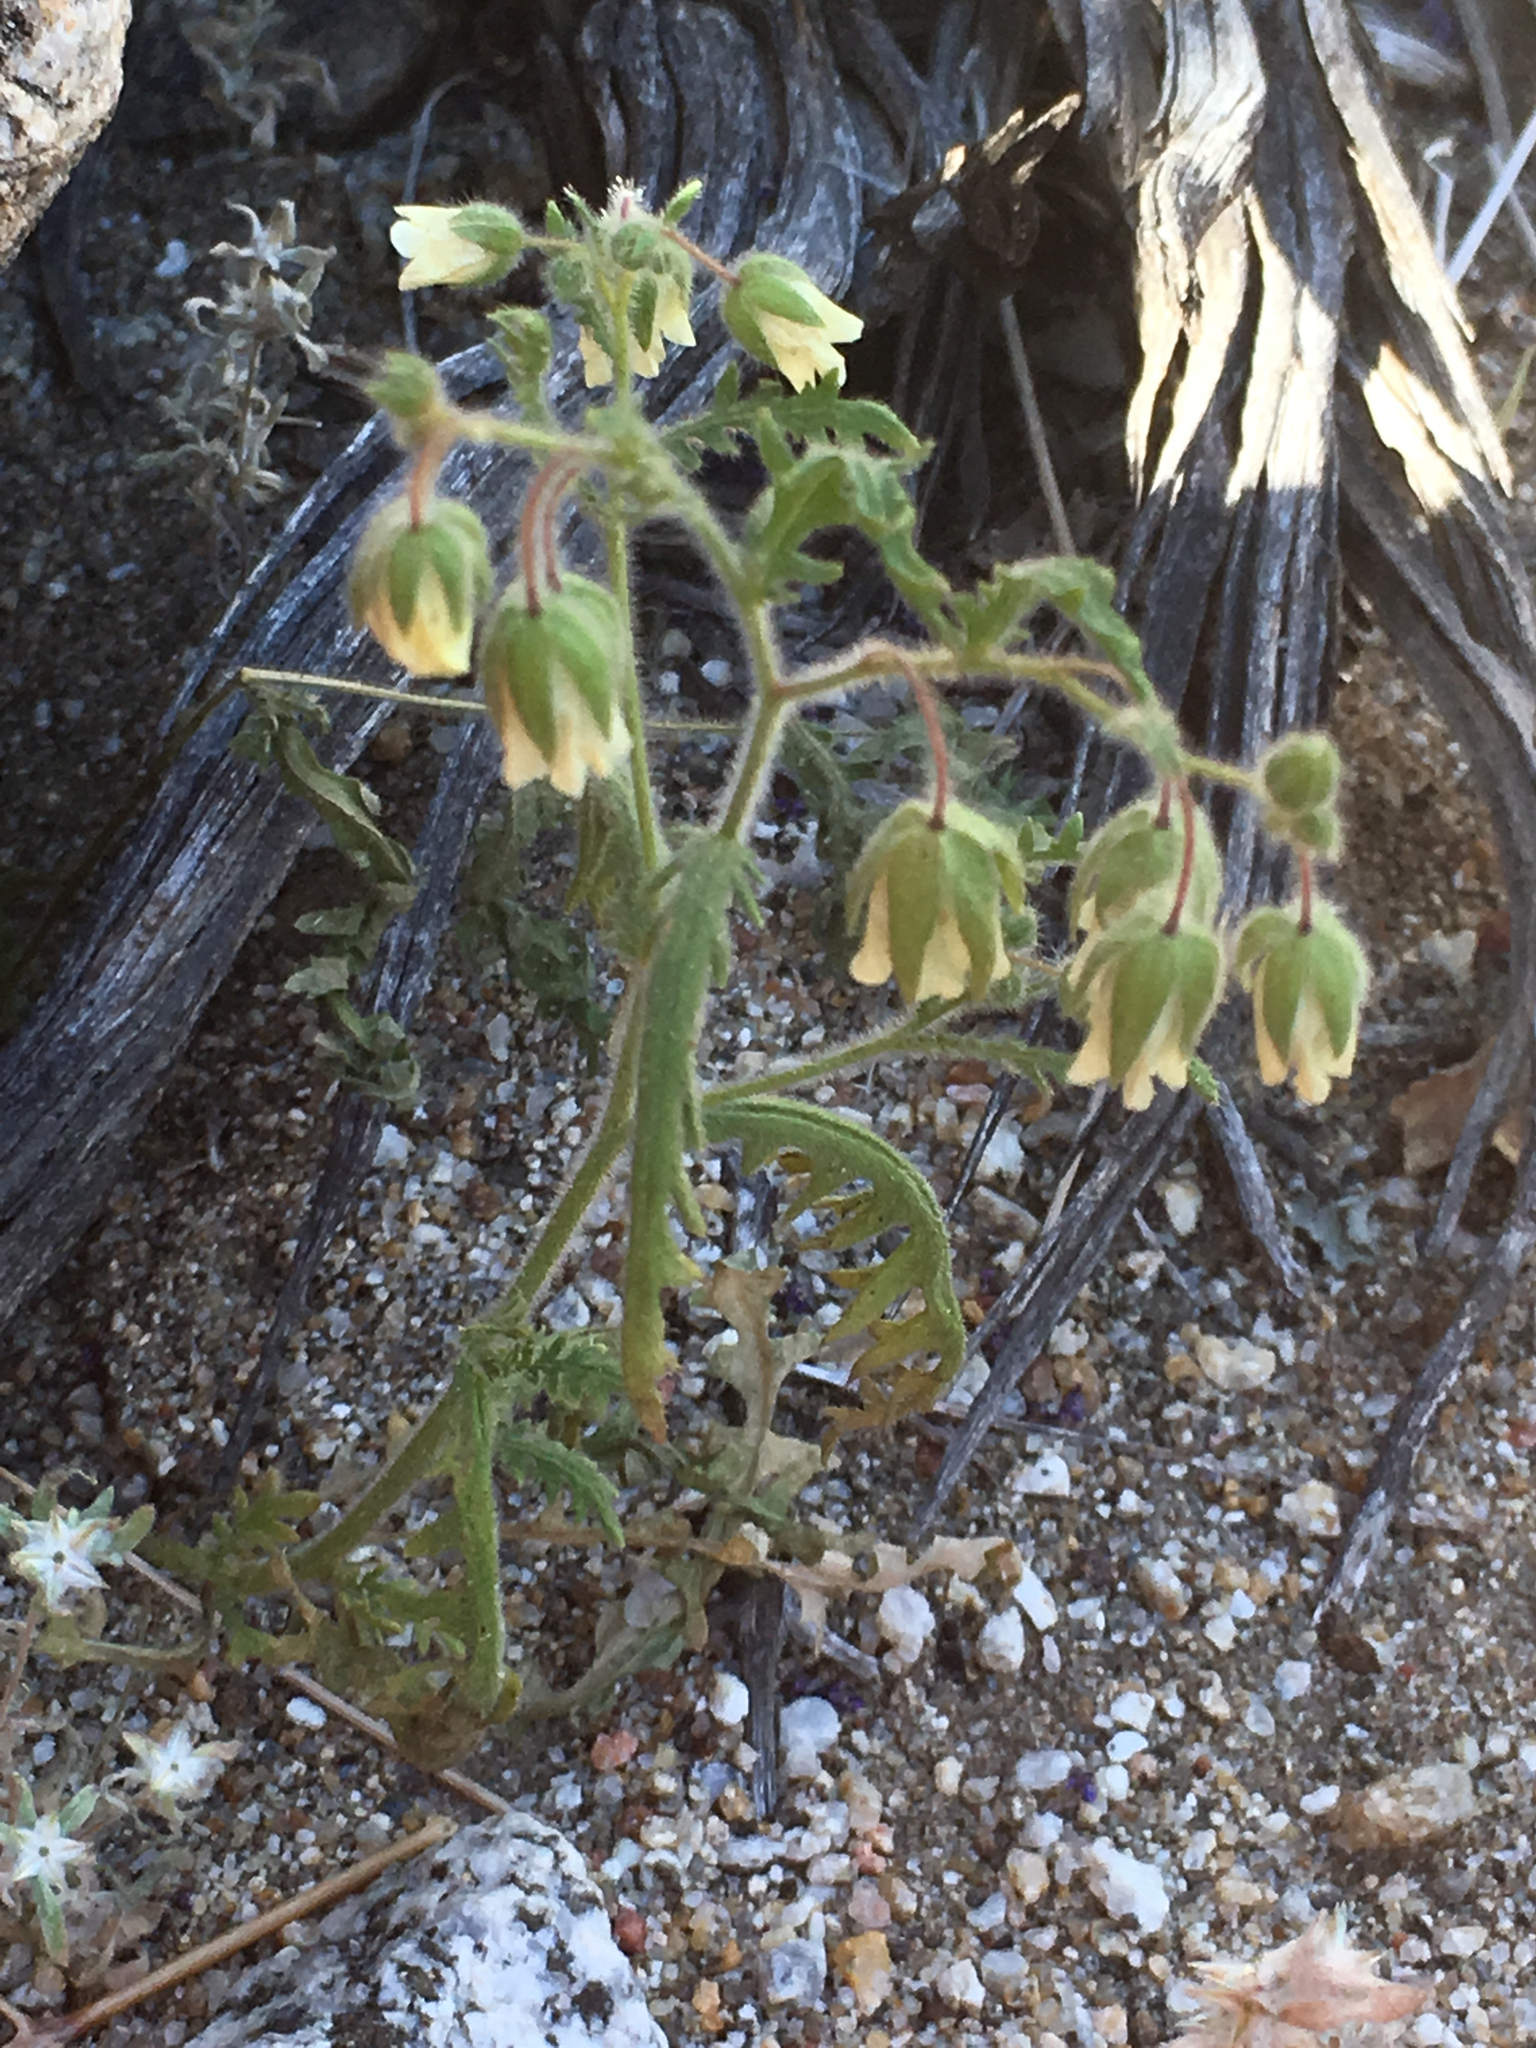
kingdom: Plantae
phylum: Tracheophyta
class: Magnoliopsida
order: Boraginales
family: Hydrophyllaceae
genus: Emmenanthe
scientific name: Emmenanthe penduliflora
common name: Whispering-bells
